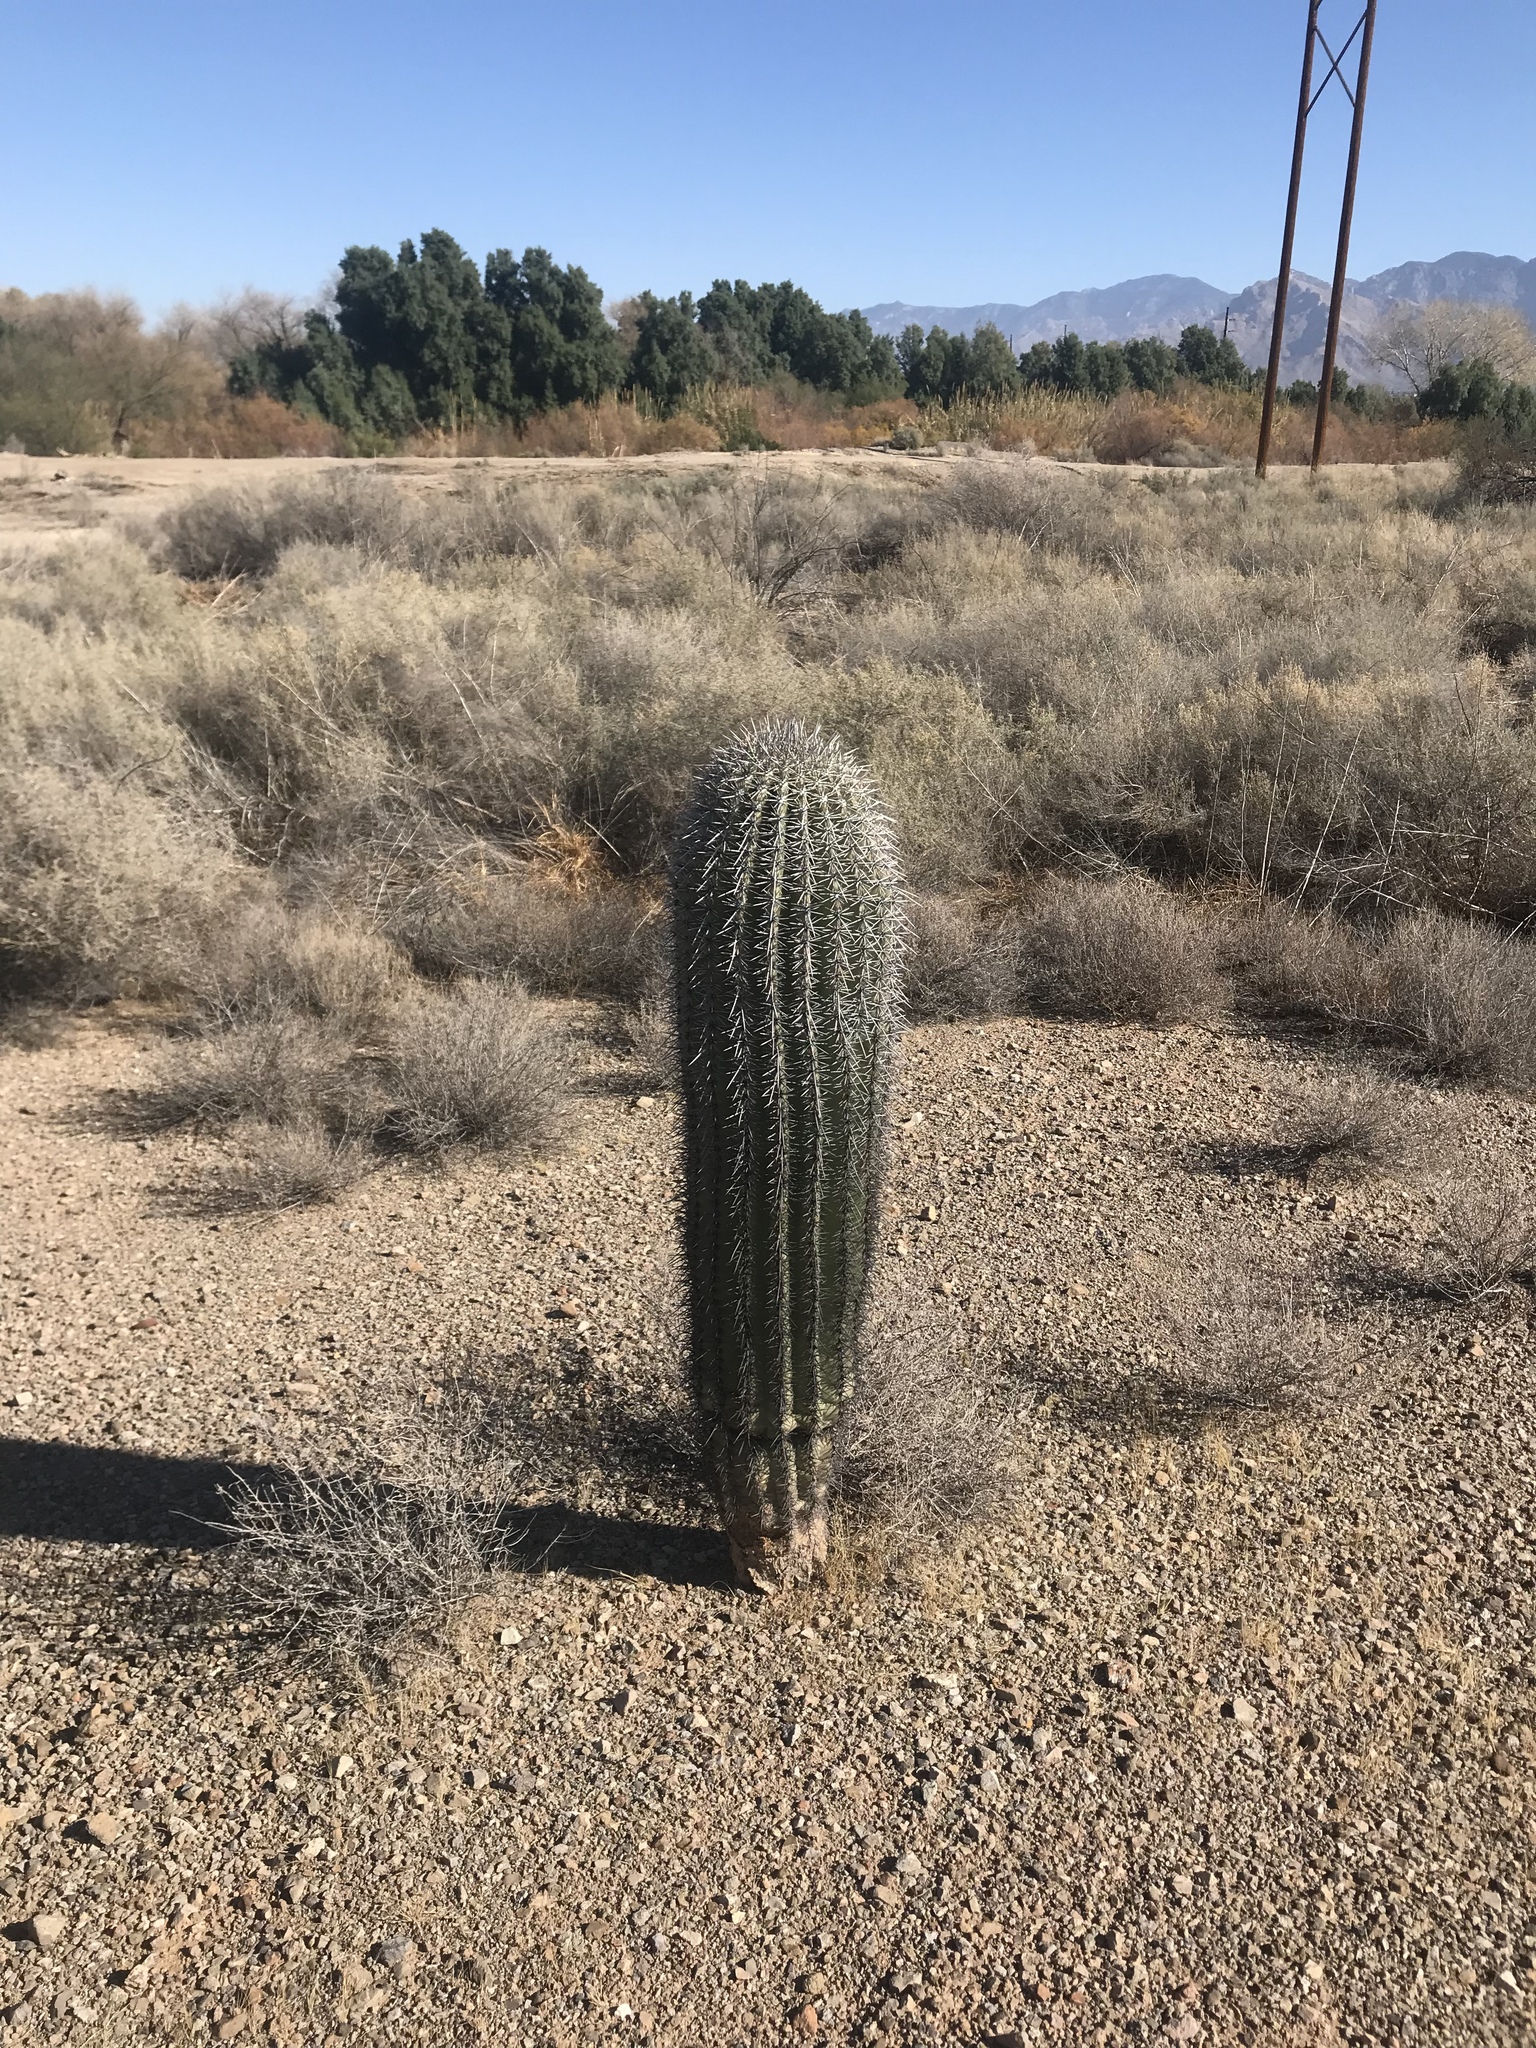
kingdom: Plantae
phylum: Tracheophyta
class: Magnoliopsida
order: Caryophyllales
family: Cactaceae
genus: Carnegiea
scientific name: Carnegiea gigantea
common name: Saguaro
